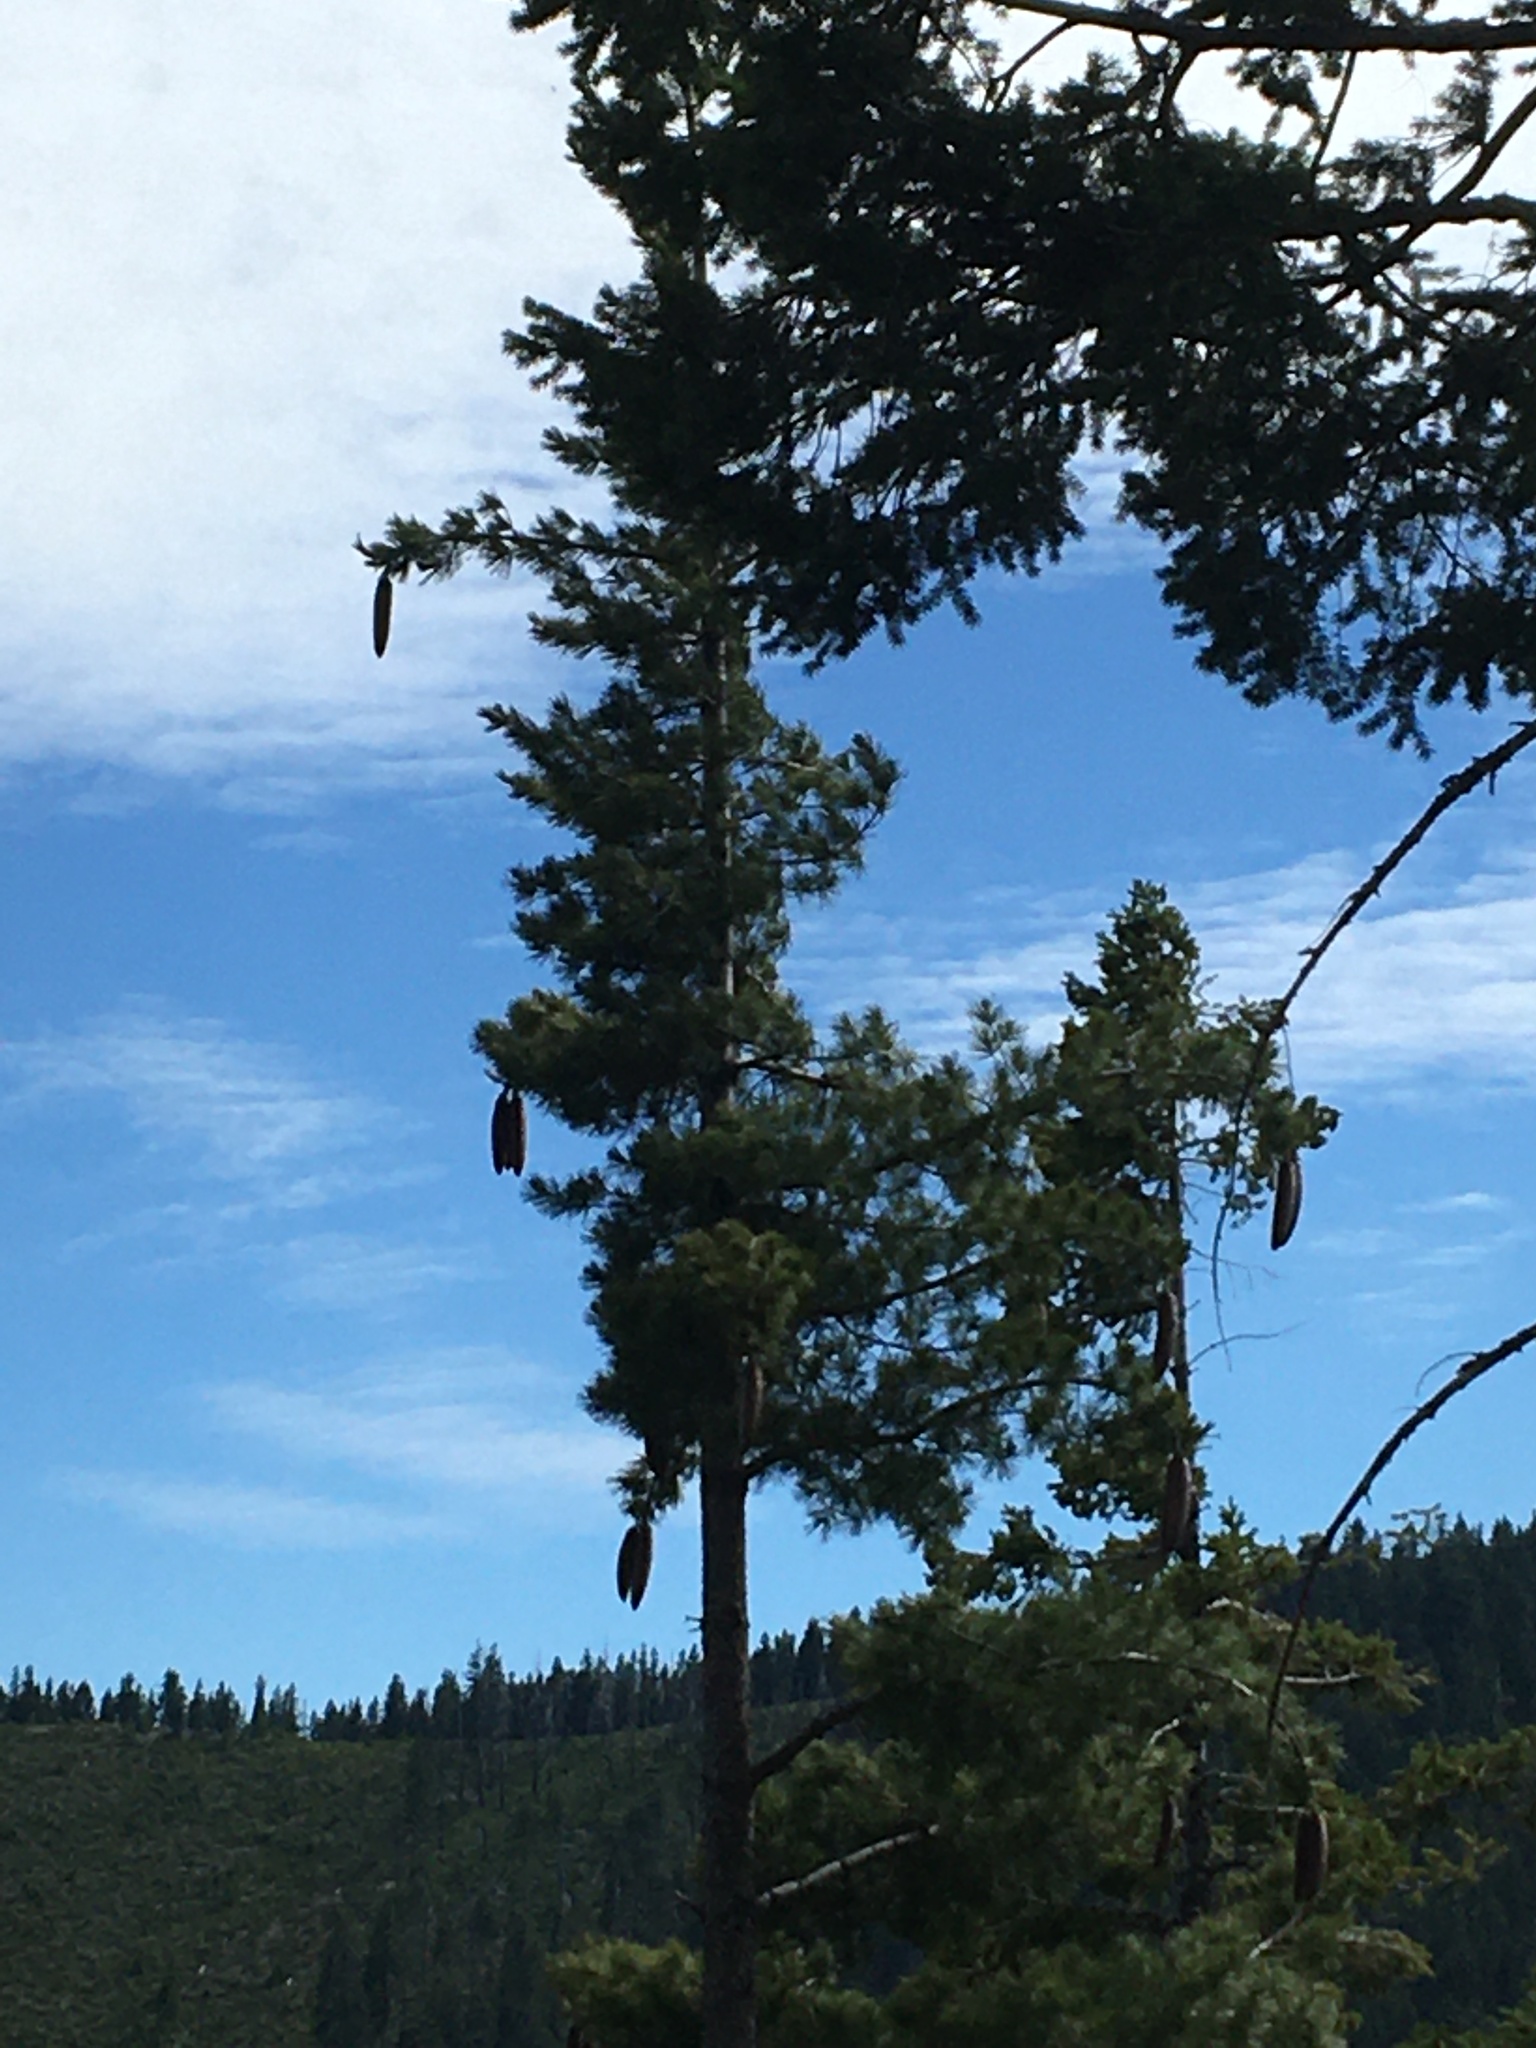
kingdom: Plantae
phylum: Tracheophyta
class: Pinopsida
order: Pinales
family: Pinaceae
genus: Pinus
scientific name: Pinus lambertiana
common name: Sugar pine
